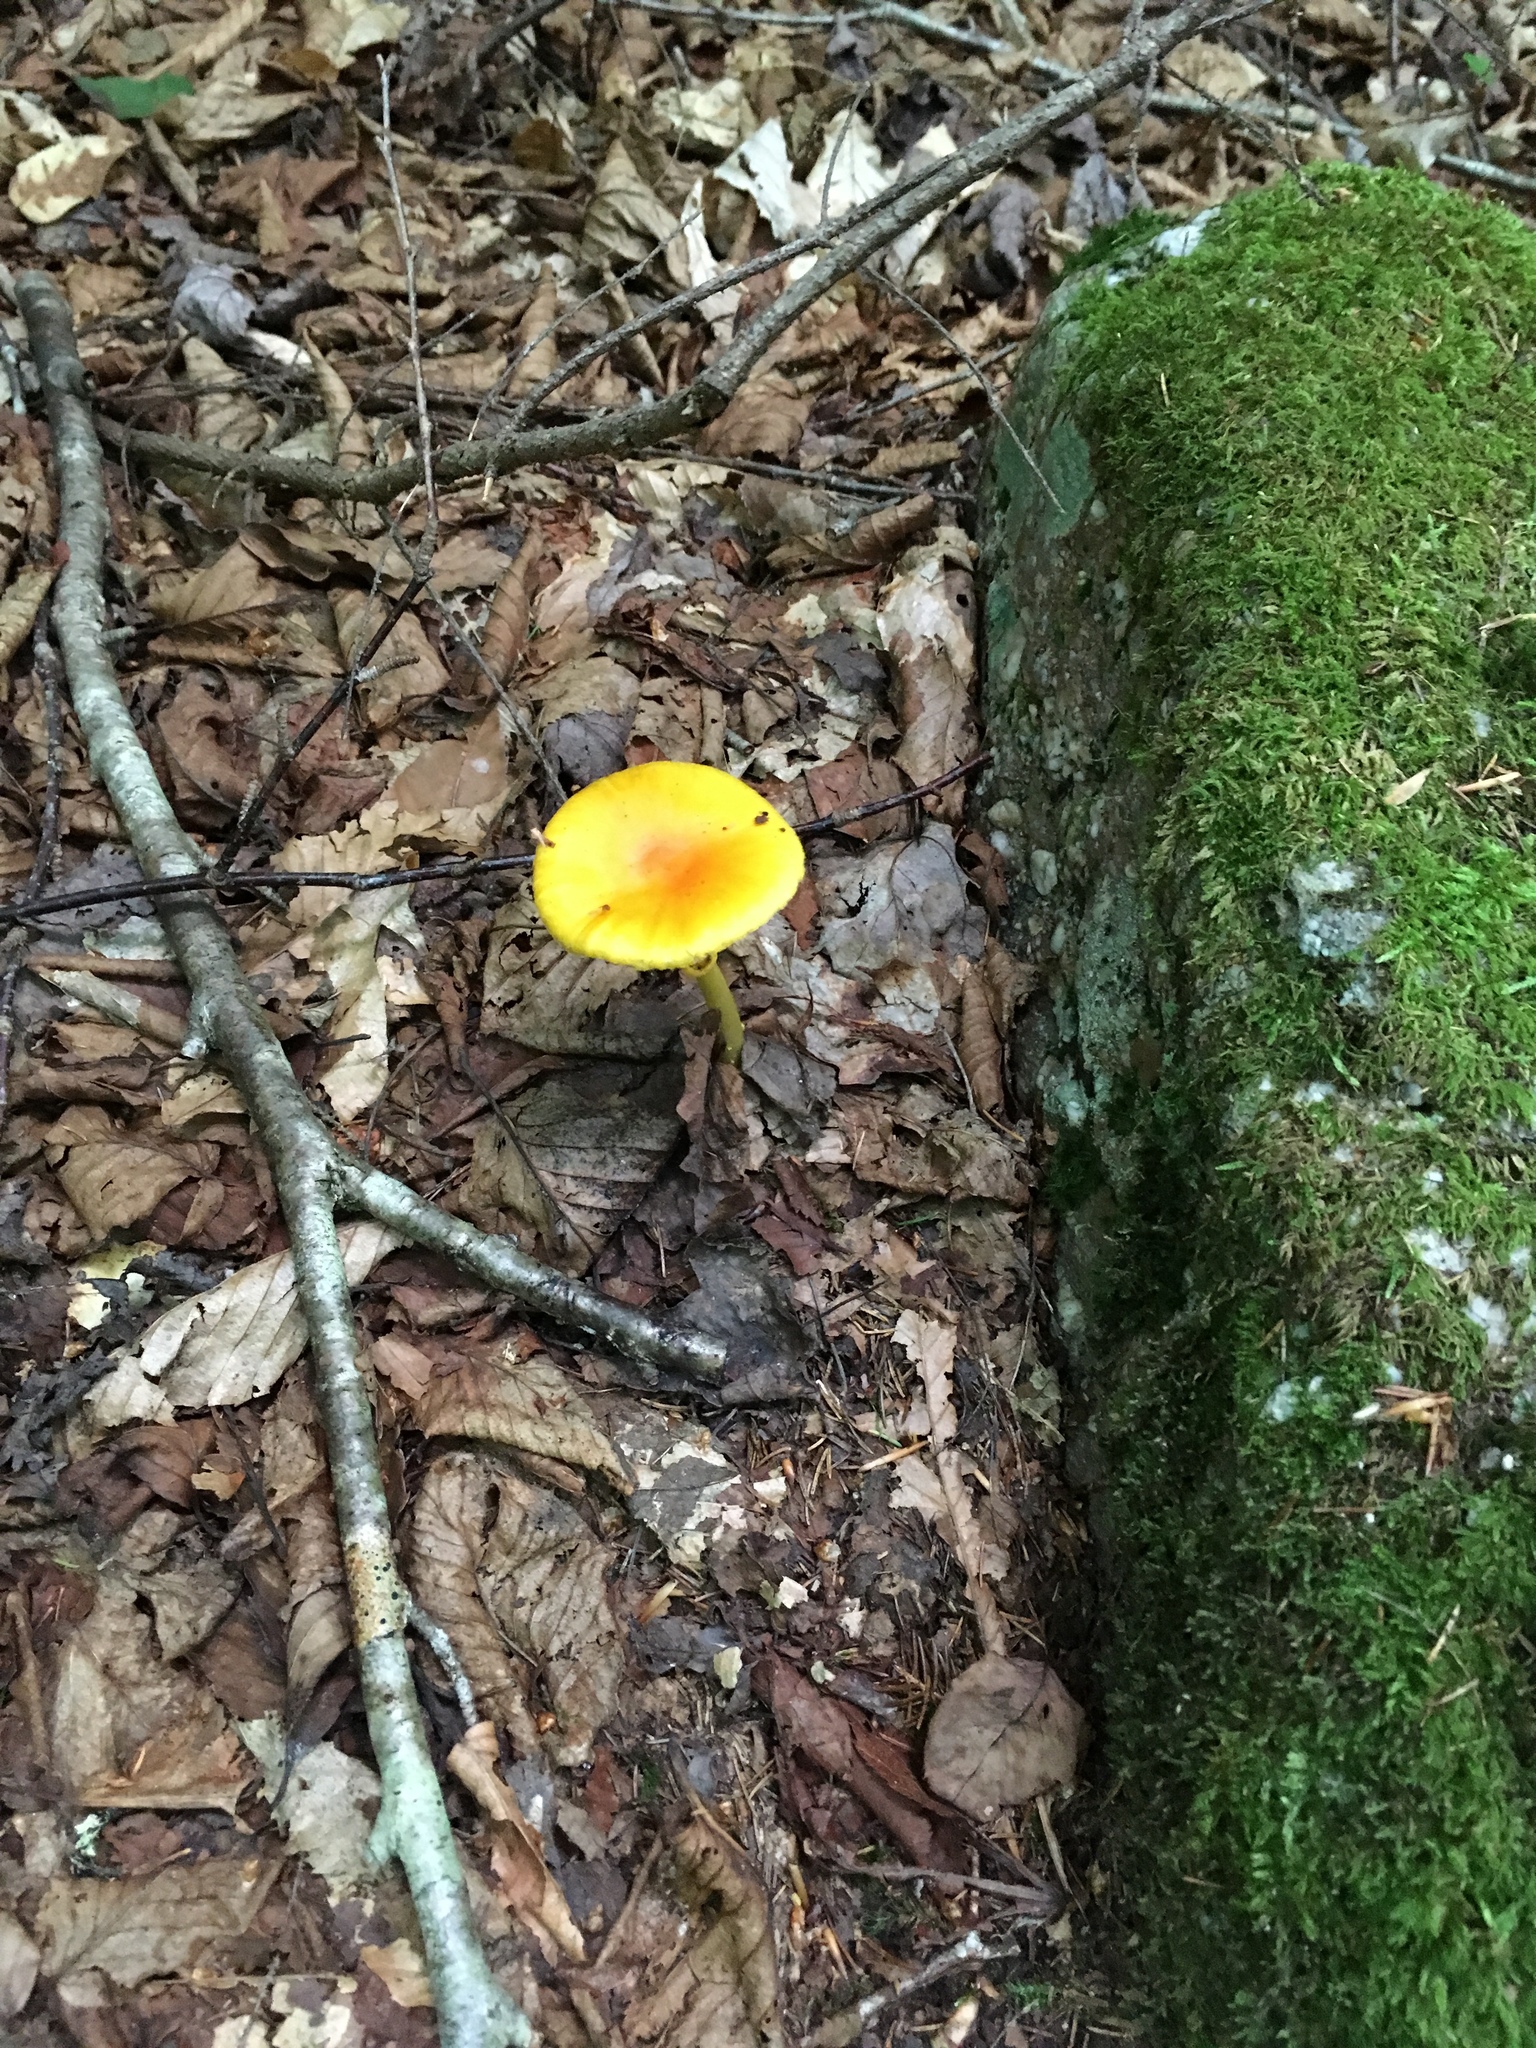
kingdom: Fungi
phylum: Basidiomycota
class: Agaricomycetes
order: Agaricales
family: Amanitaceae
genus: Amanita
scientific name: Amanita flavoconia
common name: Yellow patches
